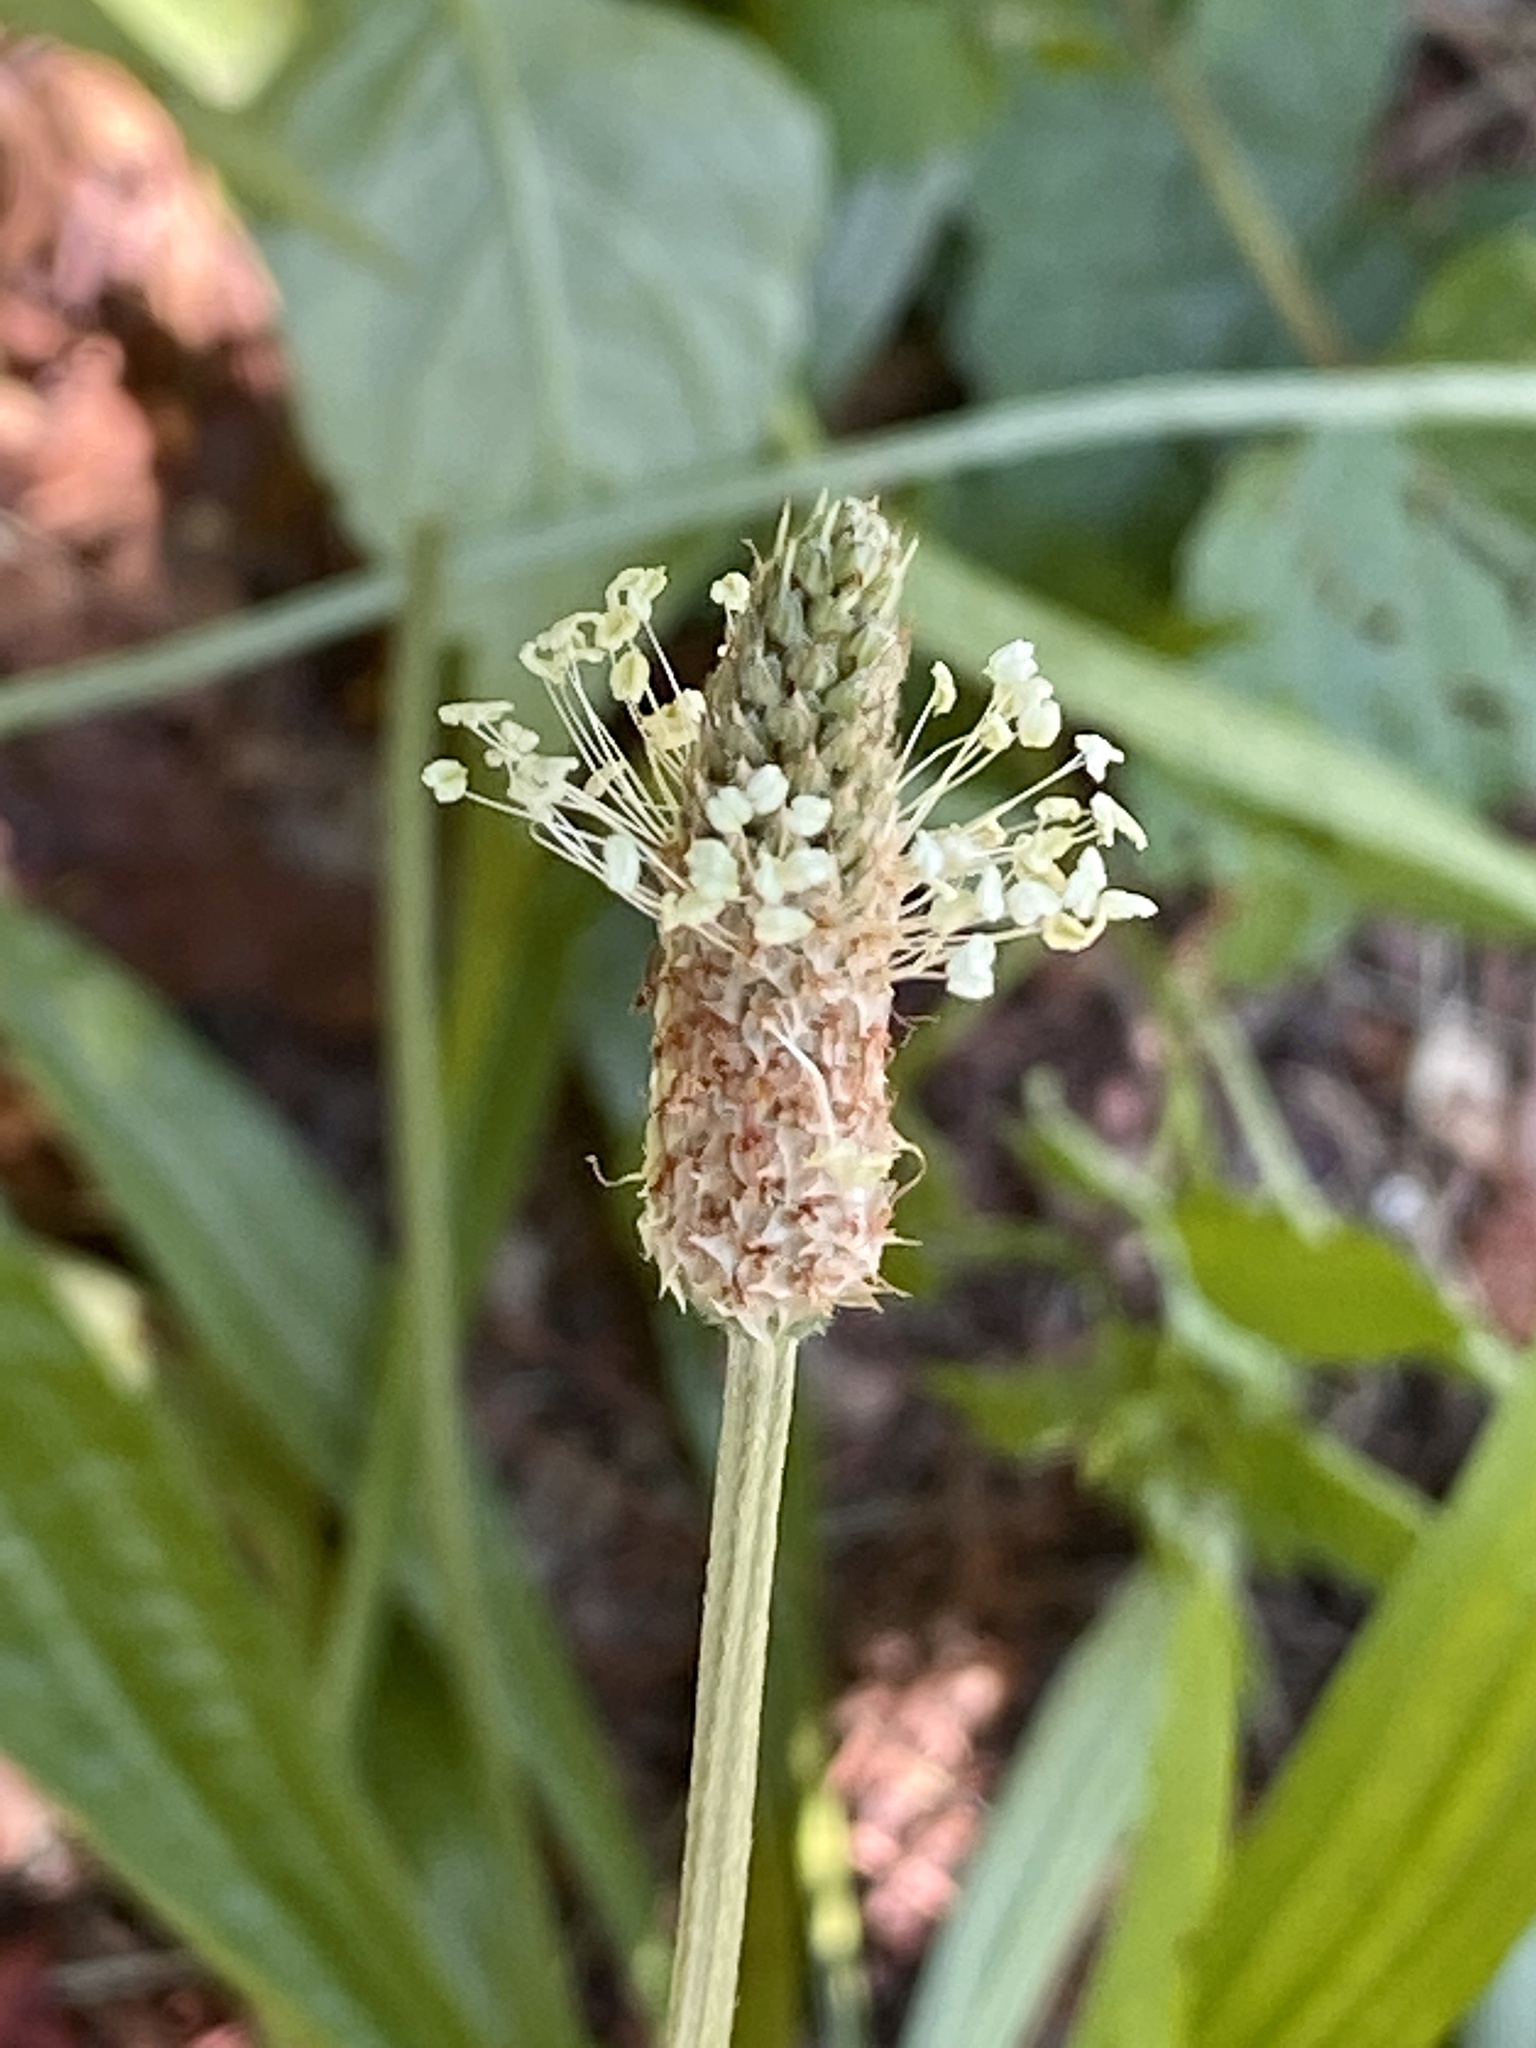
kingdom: Plantae
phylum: Tracheophyta
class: Magnoliopsida
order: Lamiales
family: Plantaginaceae
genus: Plantago
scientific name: Plantago lanceolata
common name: Ribwort plantain
